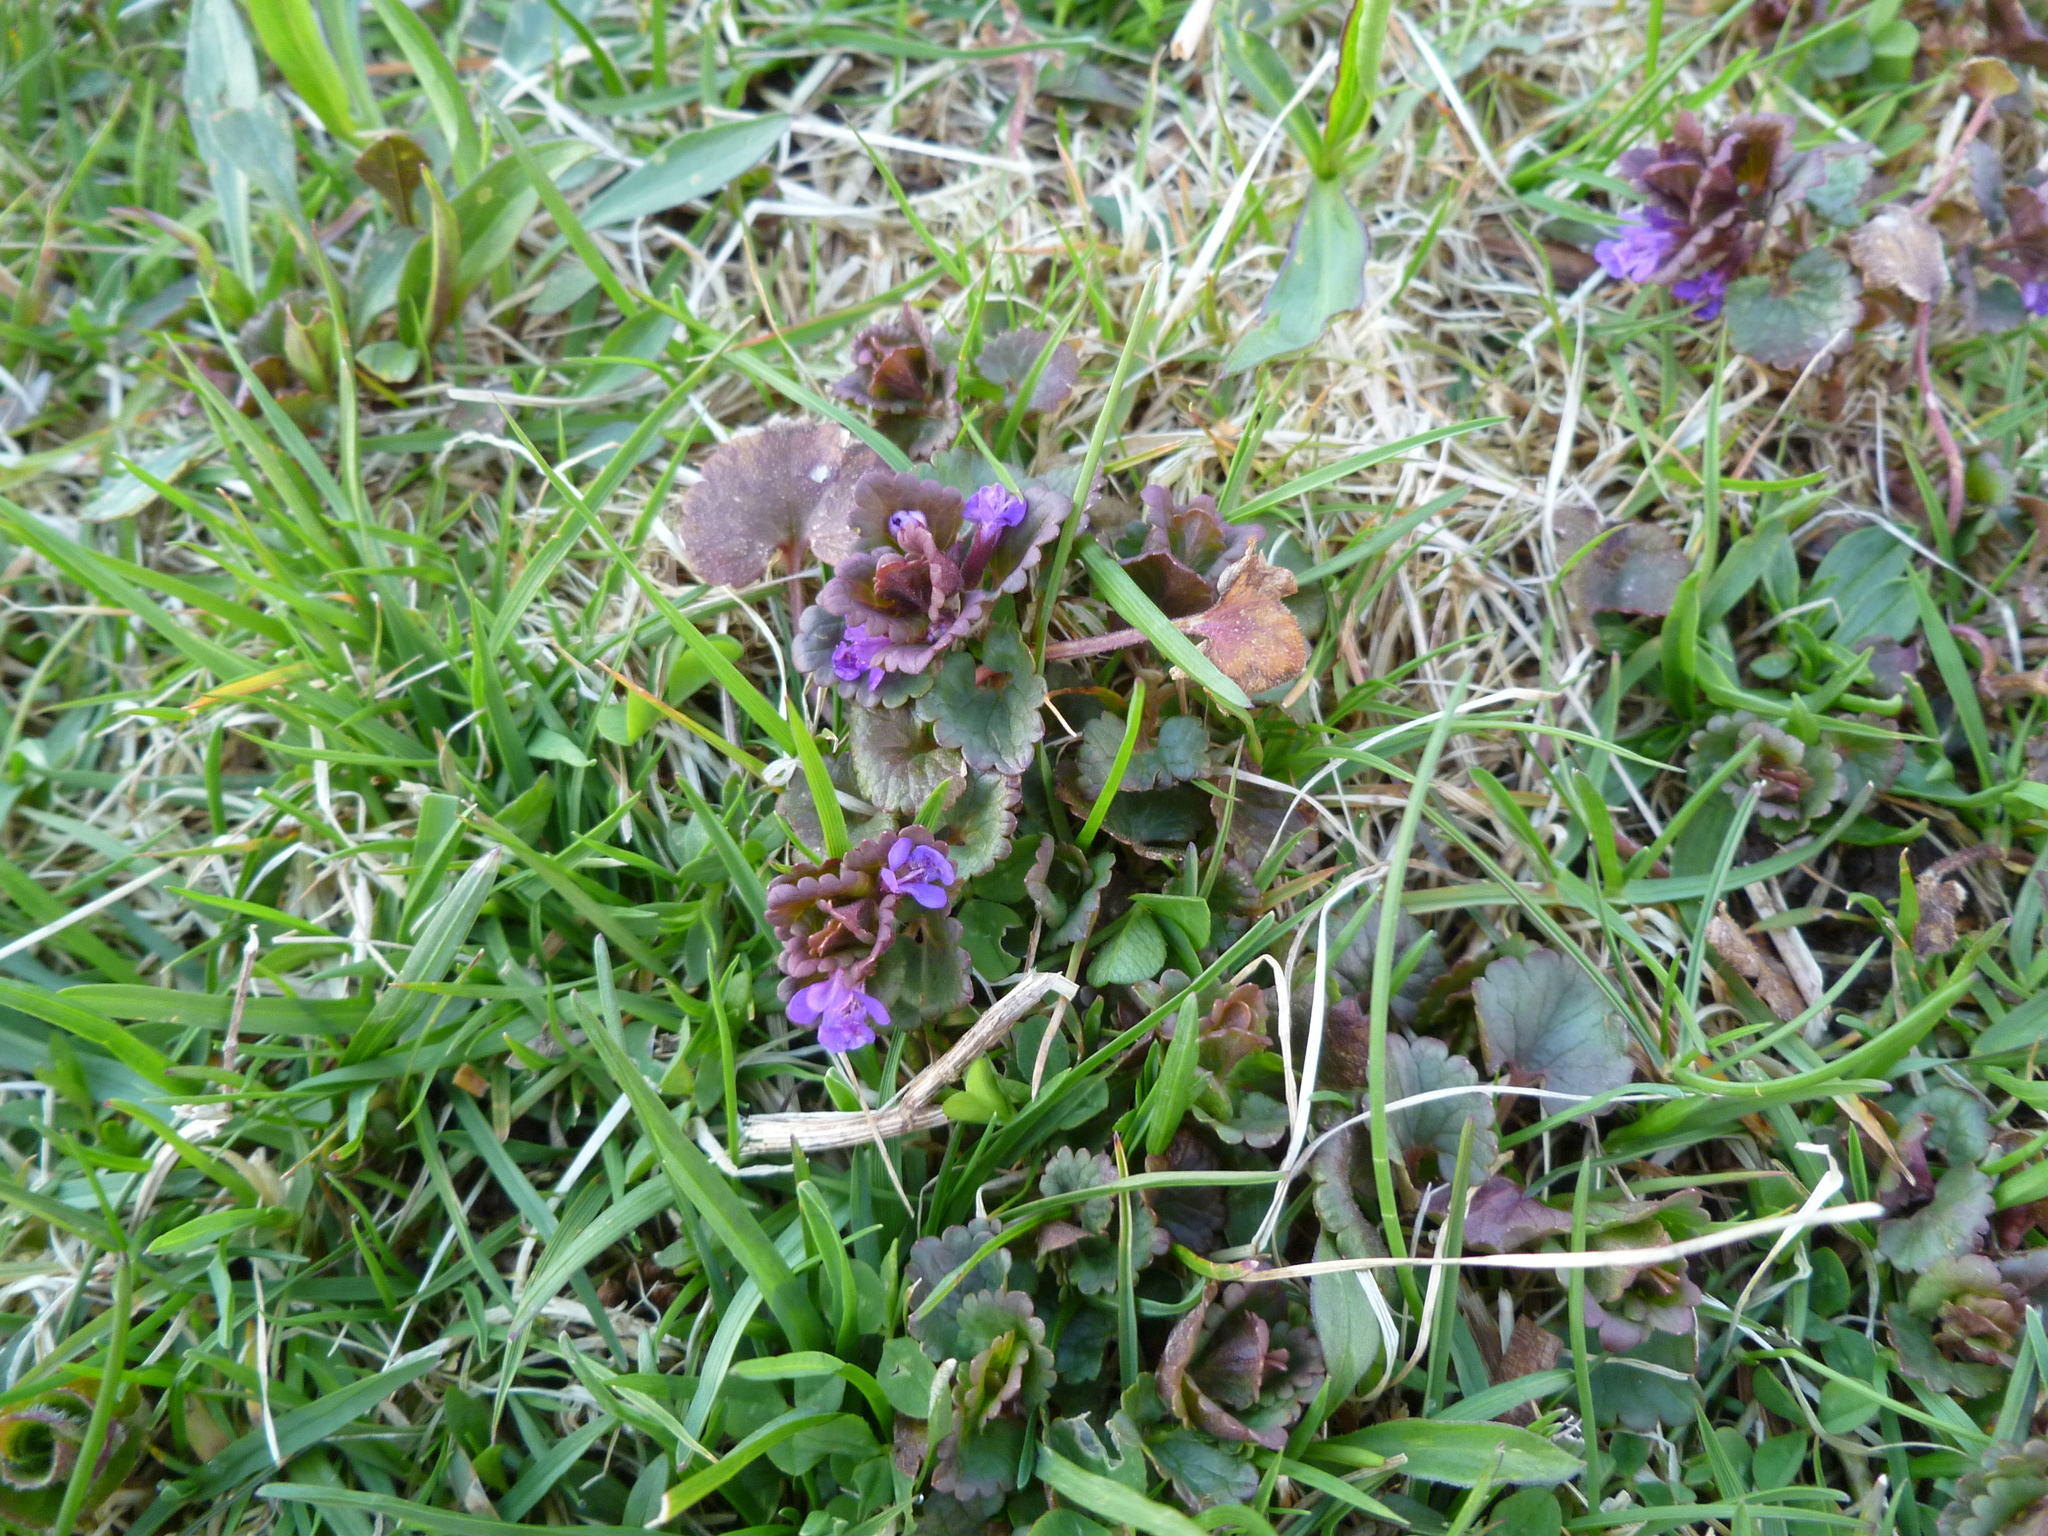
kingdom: Plantae
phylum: Tracheophyta
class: Magnoliopsida
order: Lamiales
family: Lamiaceae
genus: Glechoma
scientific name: Glechoma hederacea
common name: Ground ivy
